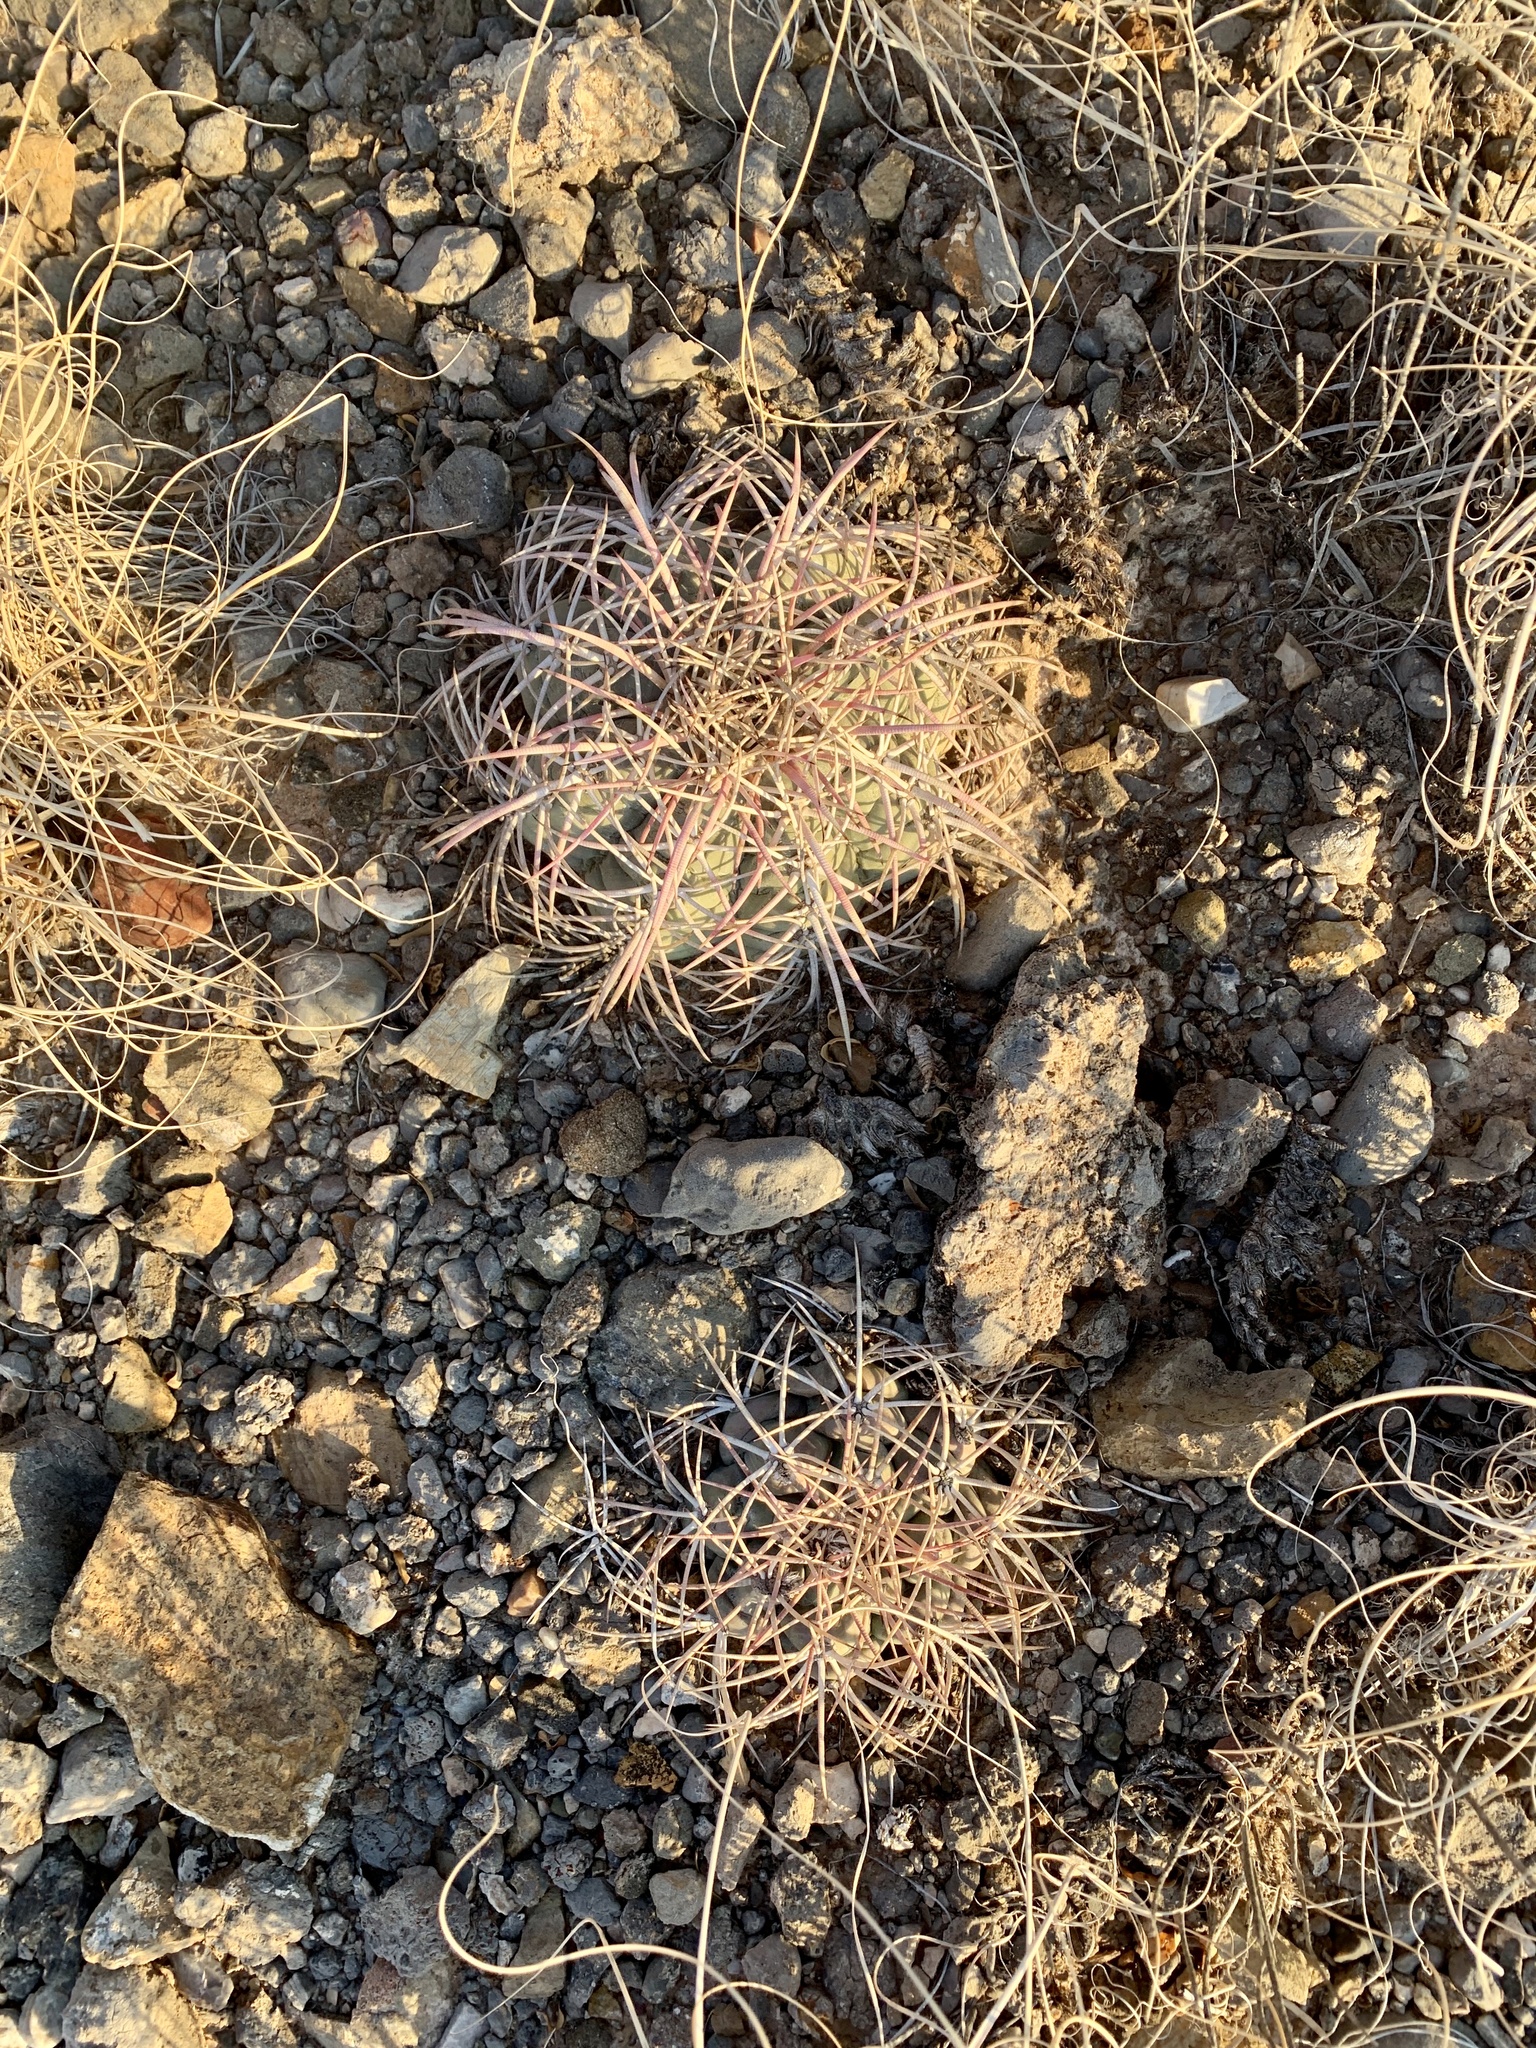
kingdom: Plantae
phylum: Tracheophyta
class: Magnoliopsida
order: Caryophyllales
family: Cactaceae
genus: Echinocactus
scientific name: Echinocactus horizonthalonius
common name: Devilshead
